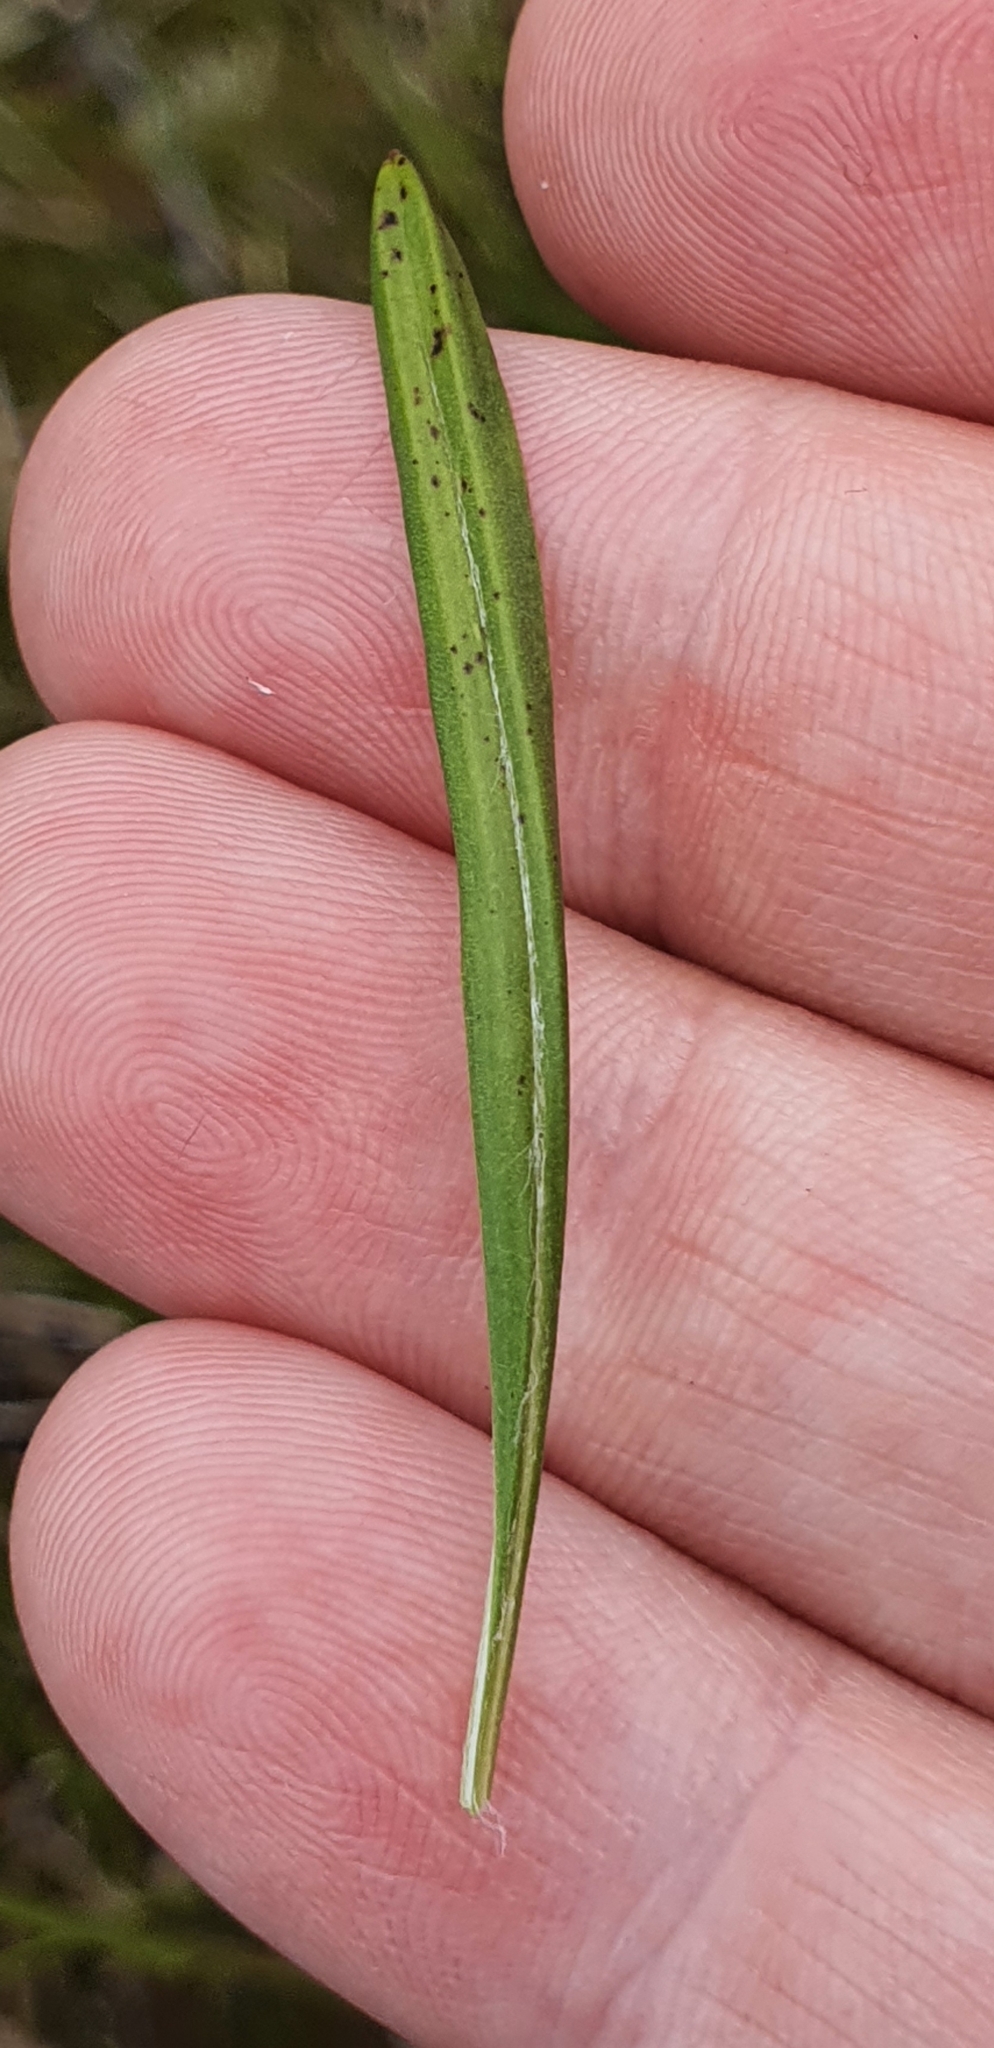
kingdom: Plantae
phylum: Tracheophyta
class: Magnoliopsida
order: Asterales
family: Asteraceae
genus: Celmisia
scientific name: Celmisia alpina
